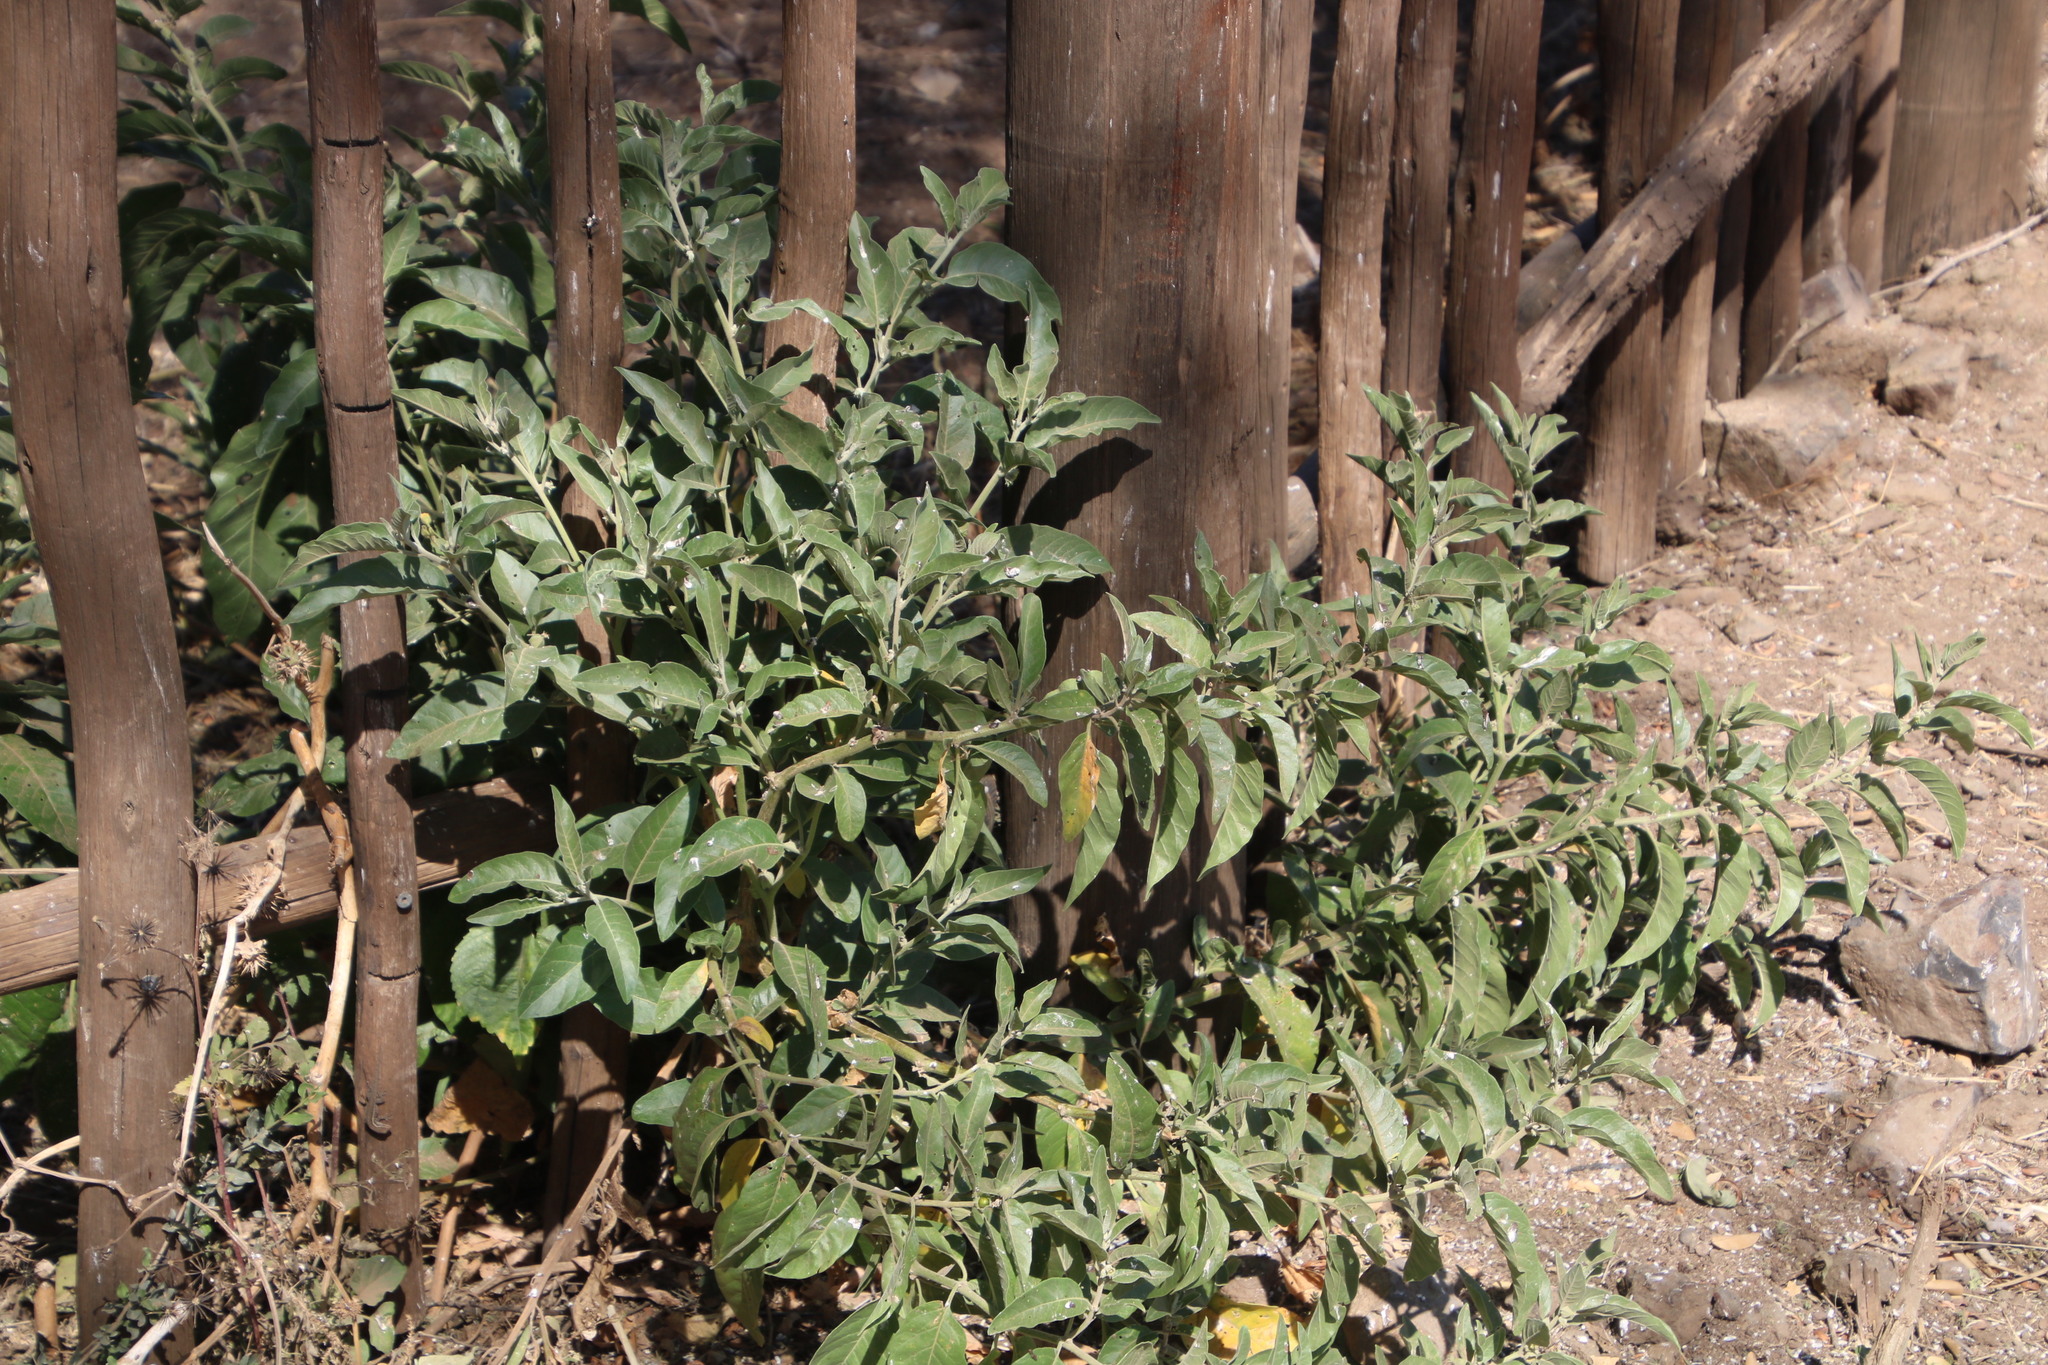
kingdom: Plantae
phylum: Tracheophyta
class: Magnoliopsida
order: Solanales
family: Solanaceae
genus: Withania
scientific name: Withania somnifera
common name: Winter-cherry
